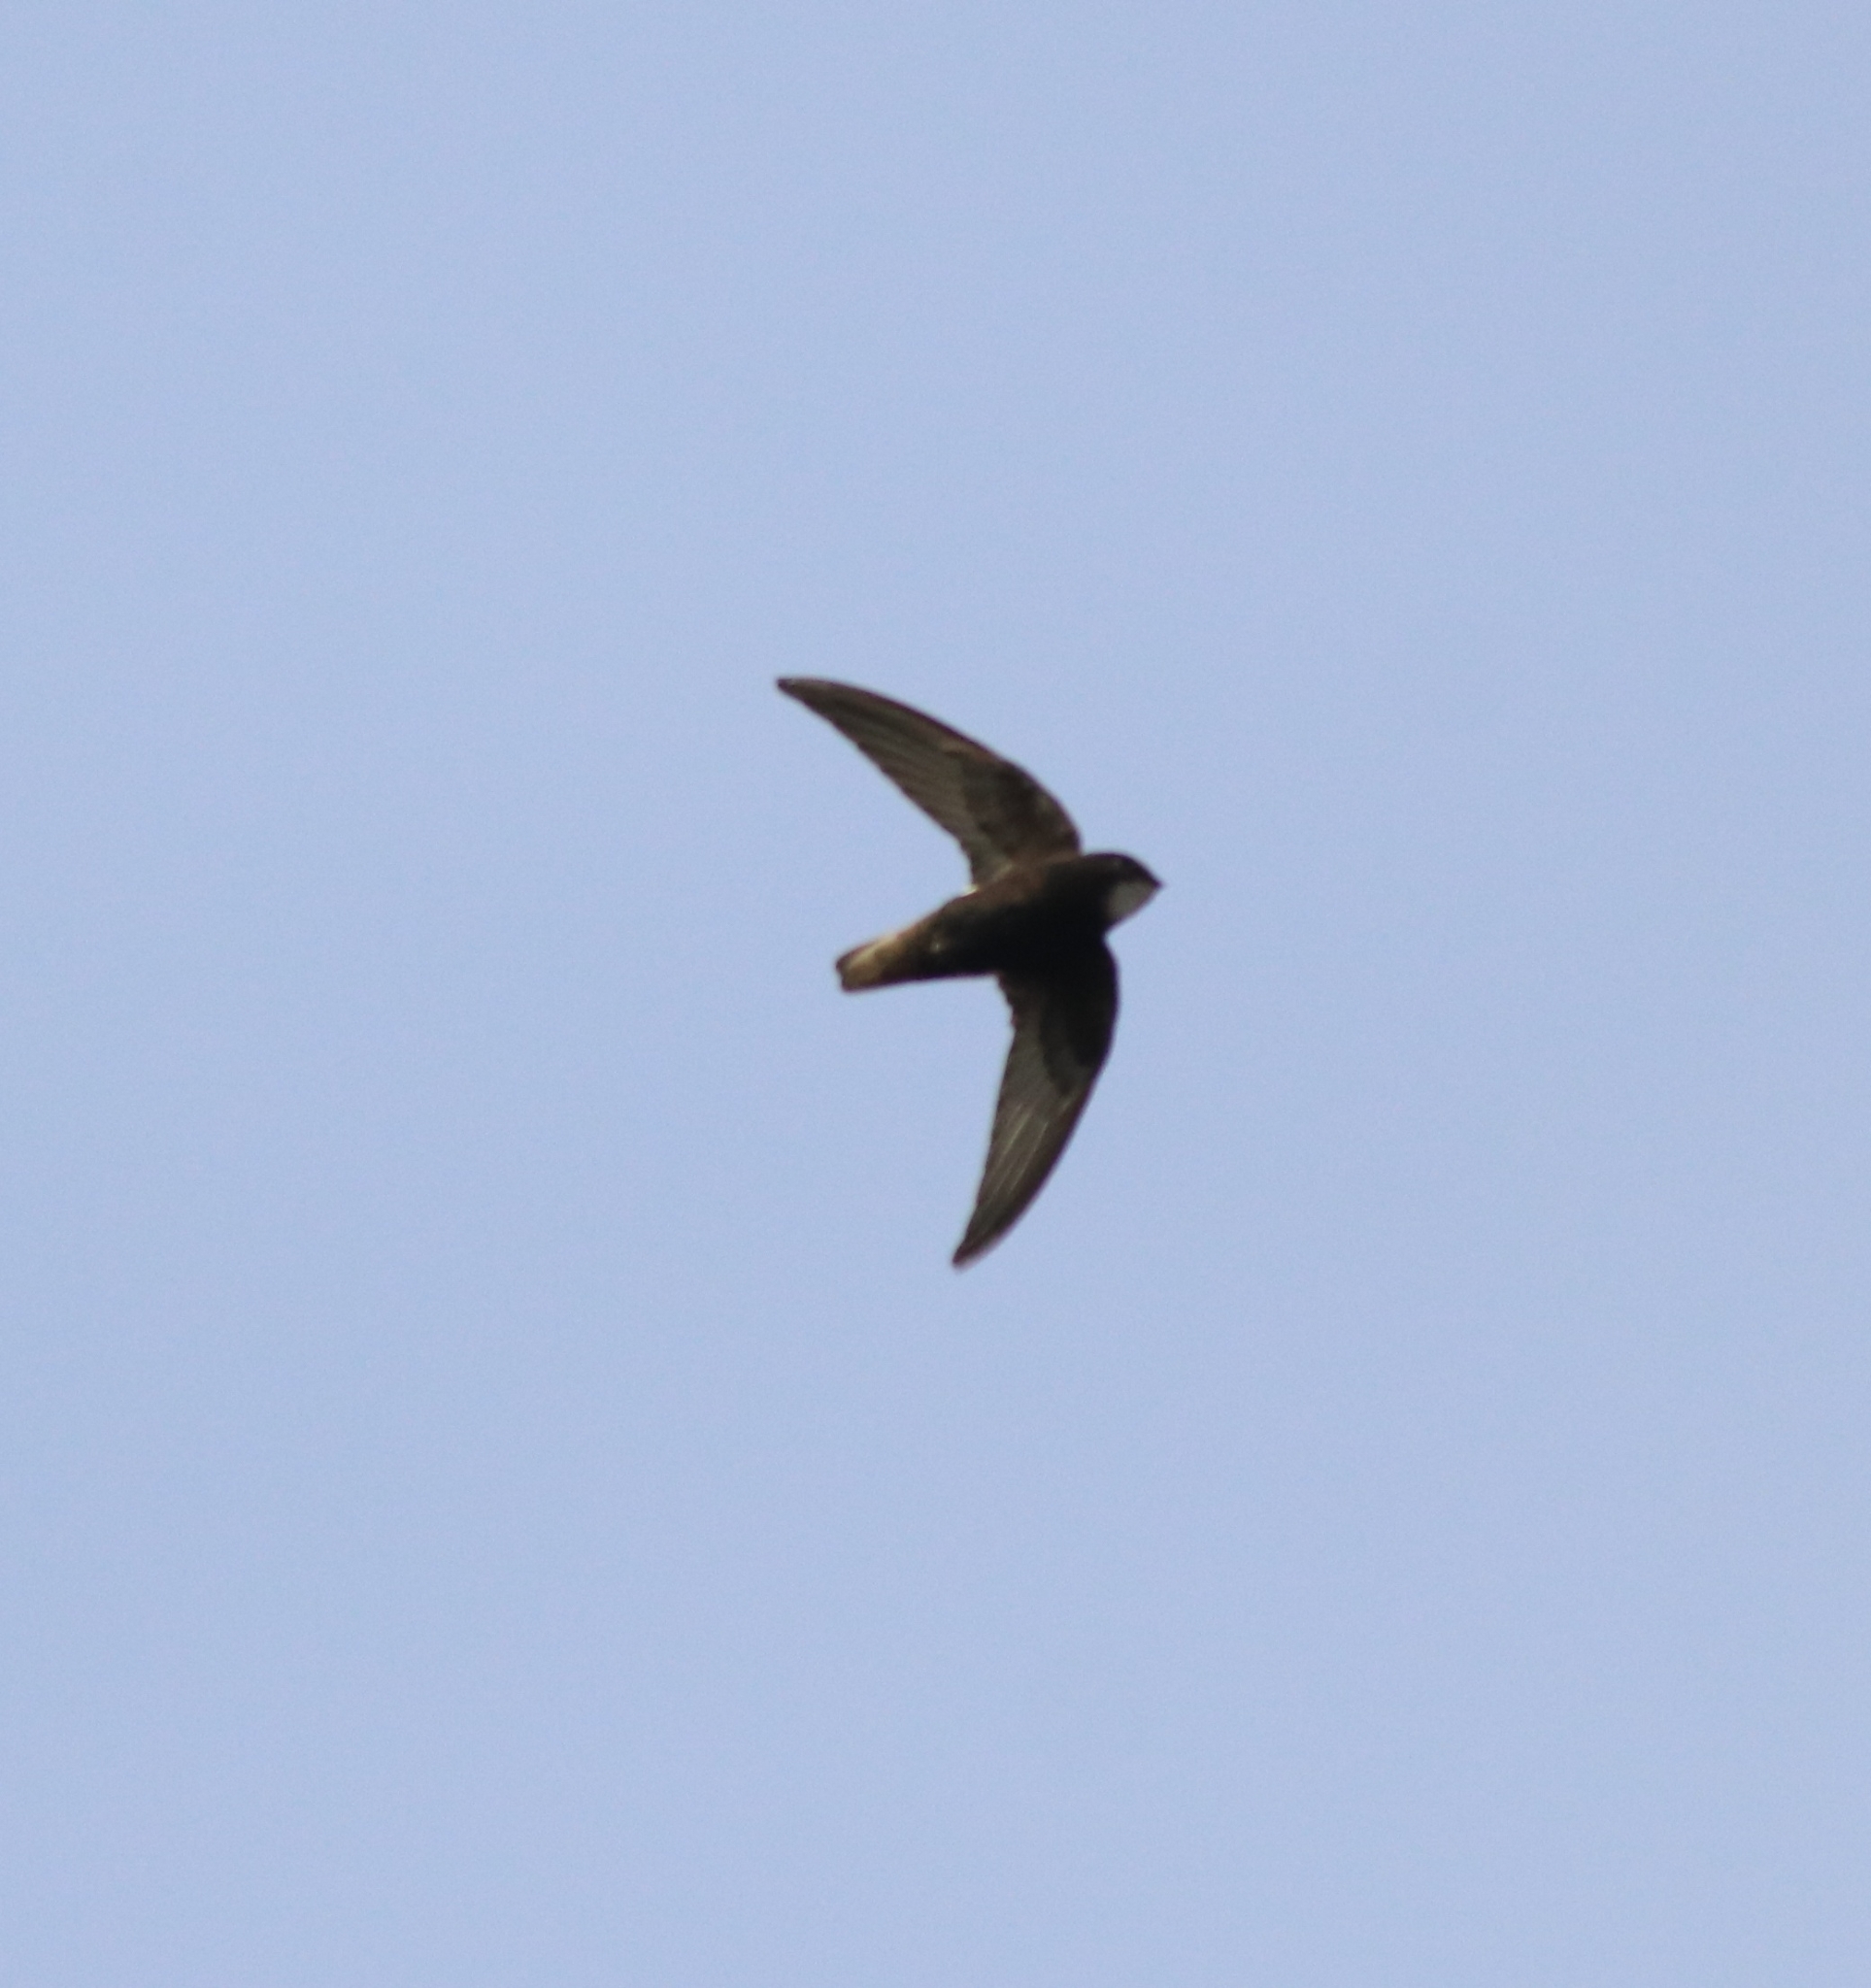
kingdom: Animalia
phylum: Chordata
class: Aves
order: Apodiformes
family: Apodidae
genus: Apus
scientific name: Apus affinis
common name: Little swift
